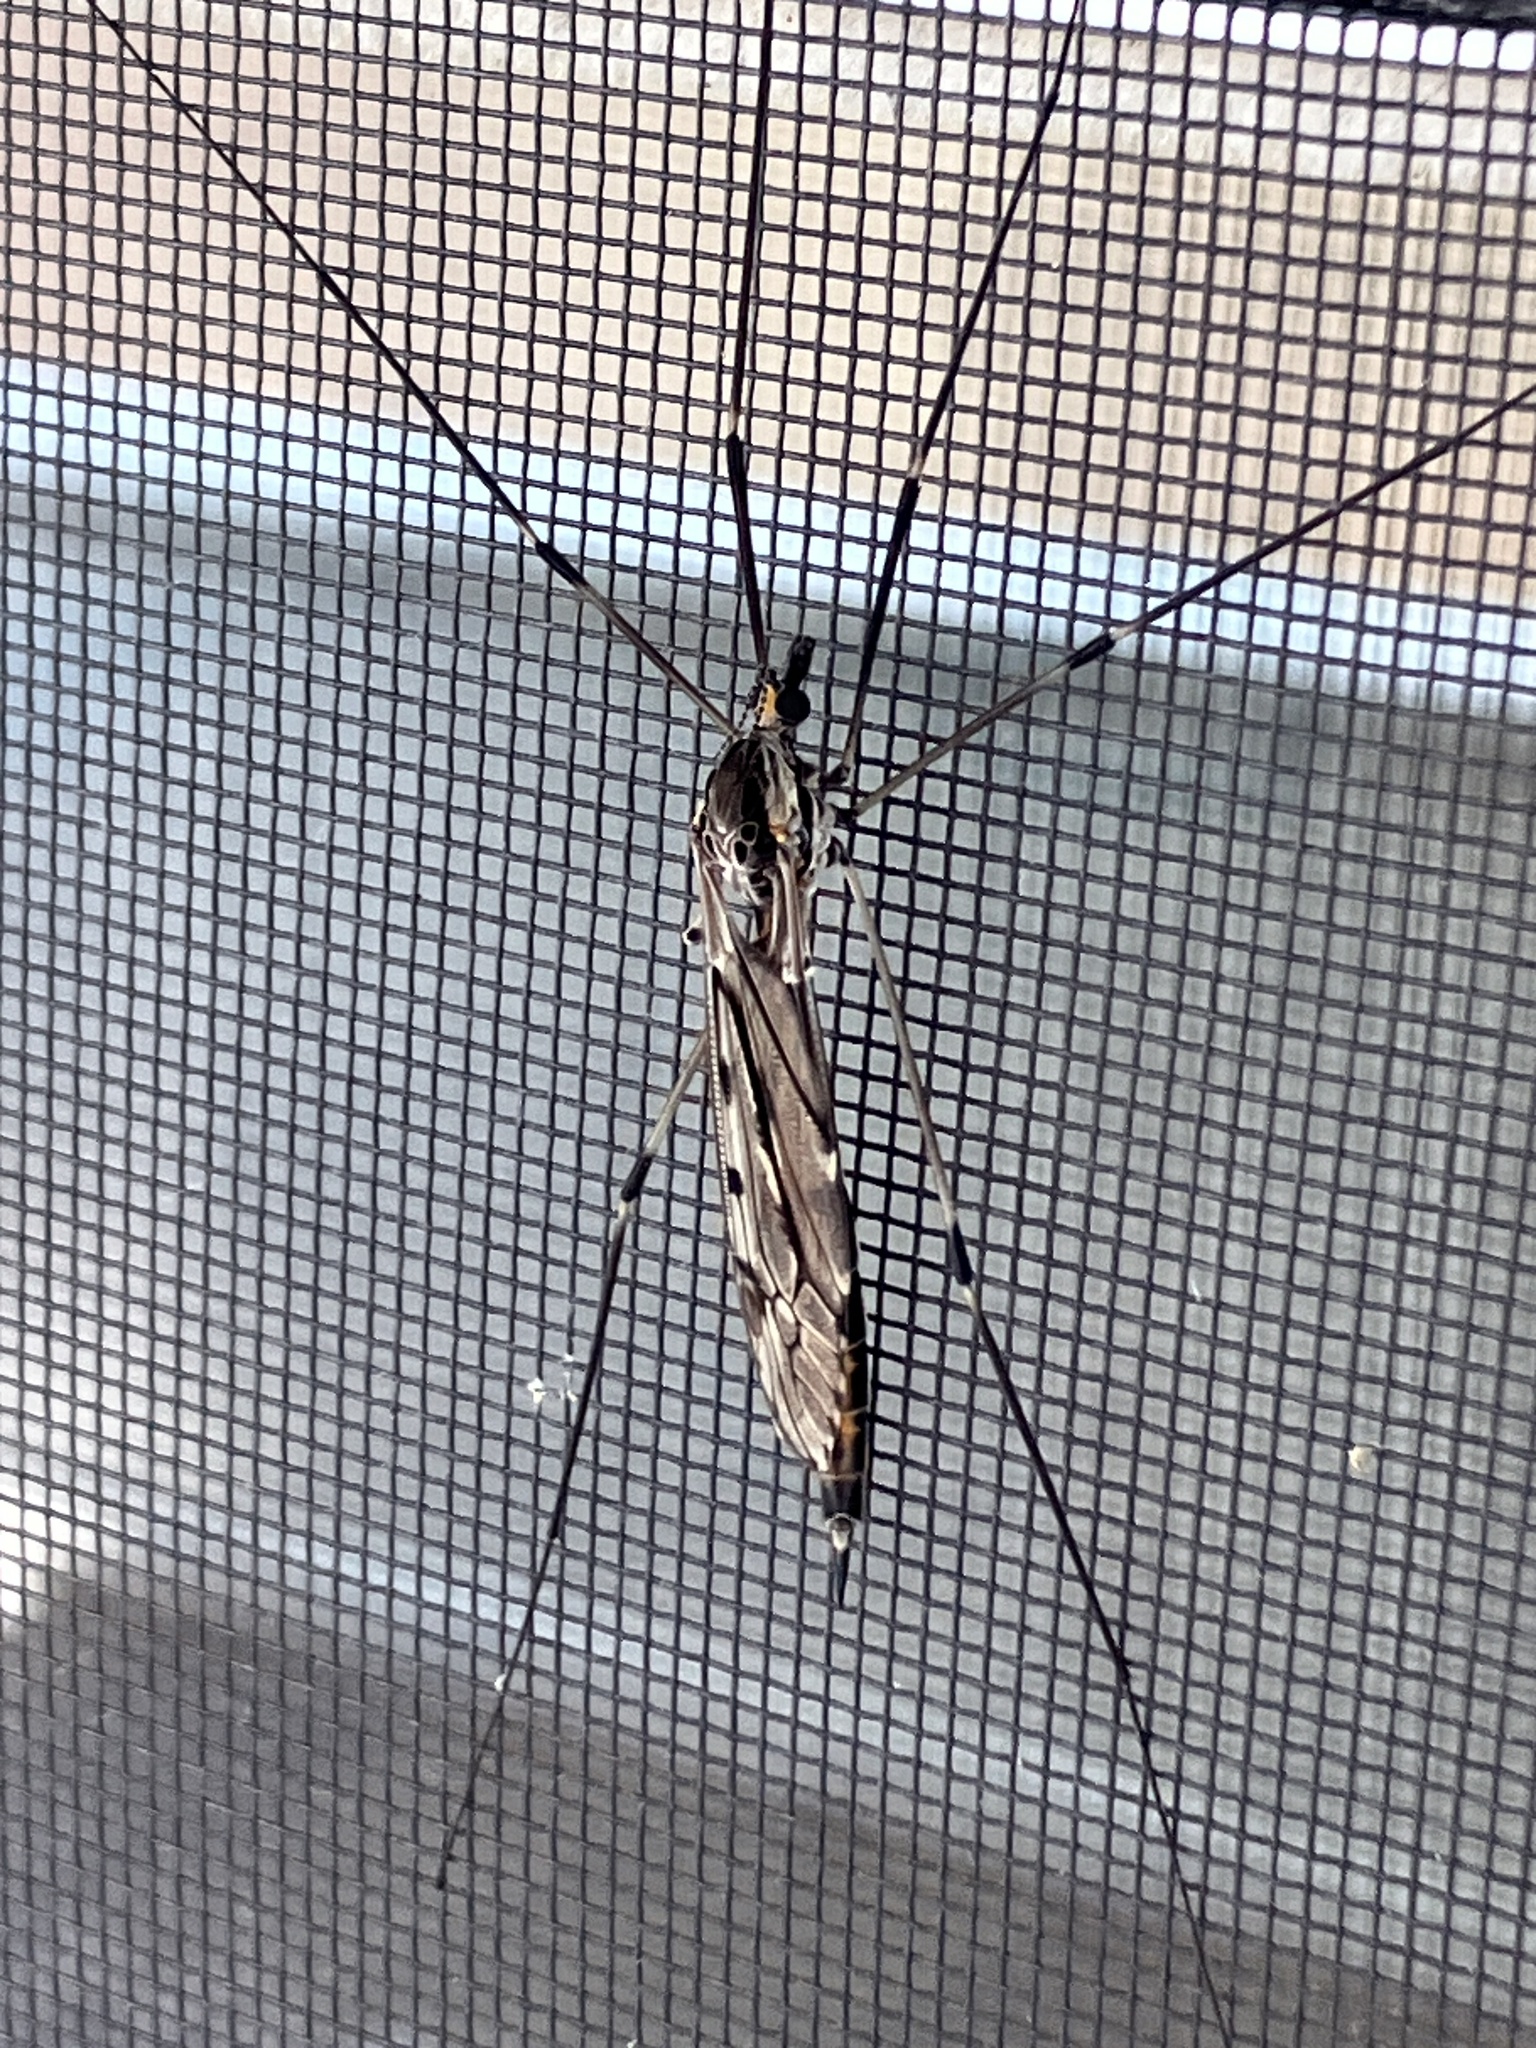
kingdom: Animalia
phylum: Arthropoda
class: Insecta
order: Diptera
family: Tipulidae
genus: Tipula
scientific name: Tipula abdominalis
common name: Giant crane fly
